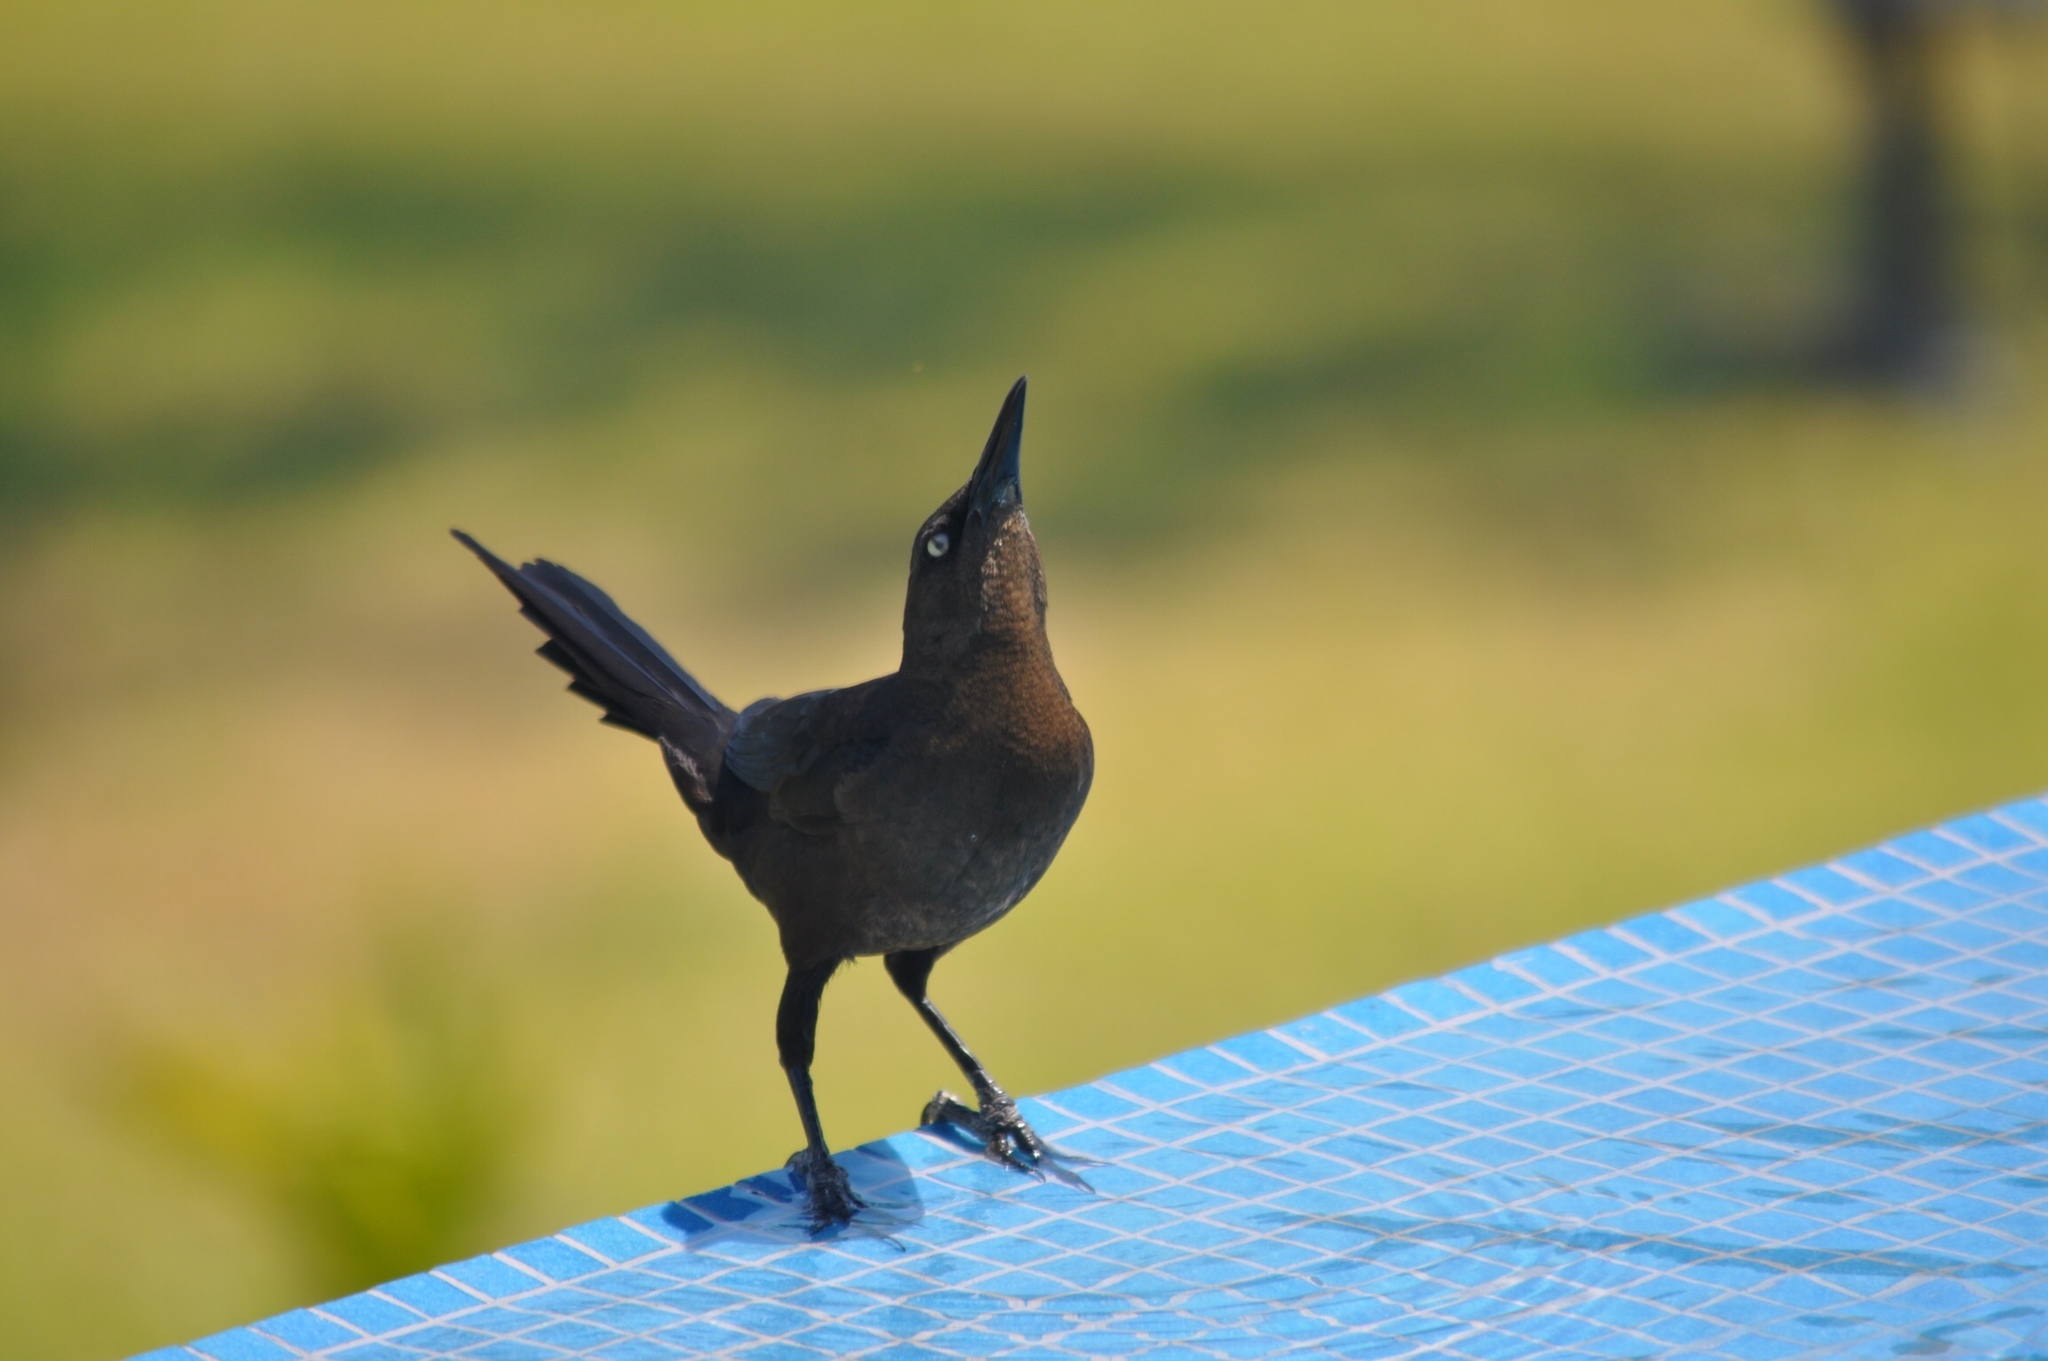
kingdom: Animalia
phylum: Chordata
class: Aves
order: Passeriformes
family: Icteridae
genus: Quiscalus
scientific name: Quiscalus mexicanus
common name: Great-tailed grackle
